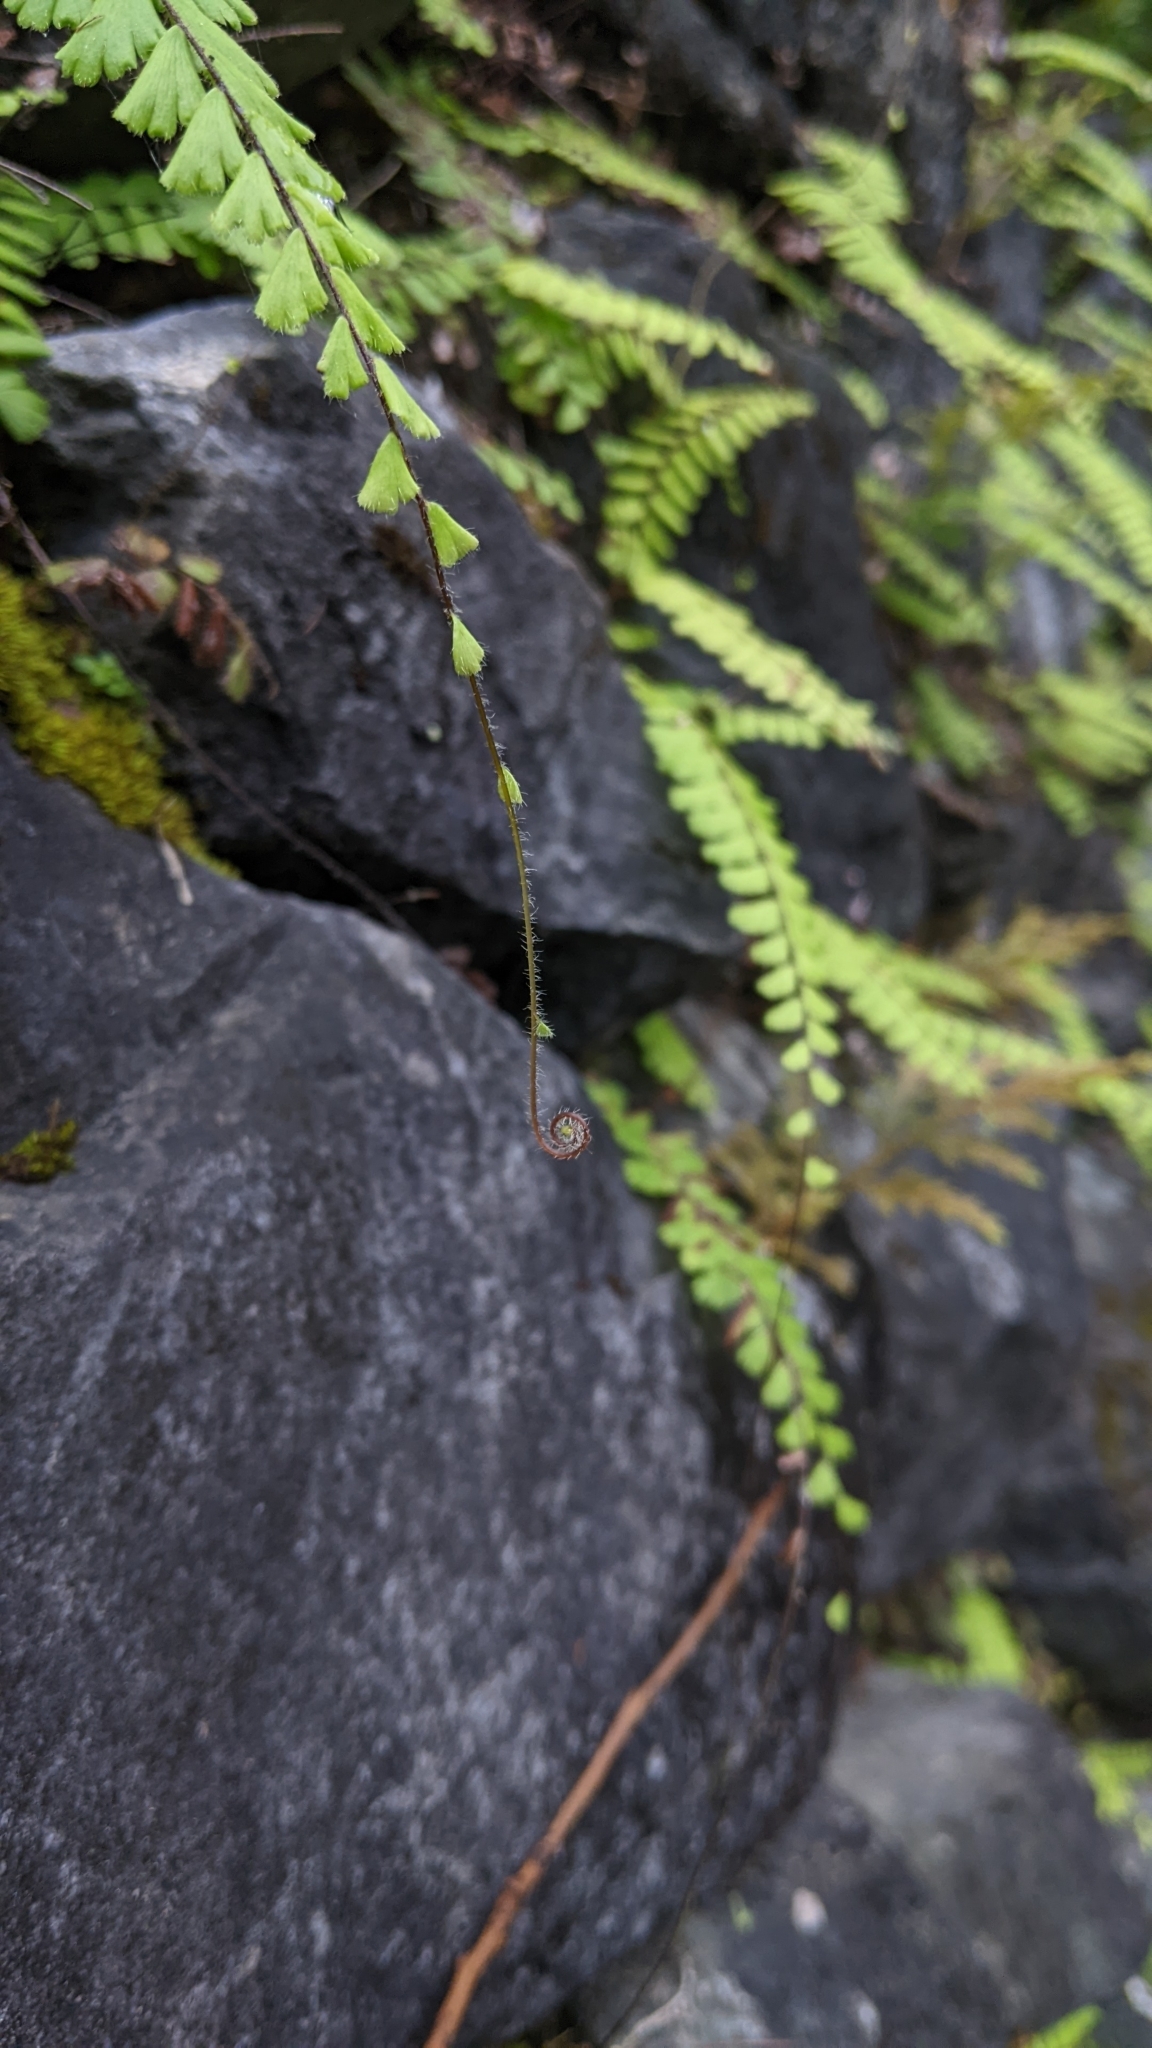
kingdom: Plantae
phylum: Tracheophyta
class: Polypodiopsida
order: Polypodiales
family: Pteridaceae
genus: Adiantum
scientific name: Adiantum ciliatum
